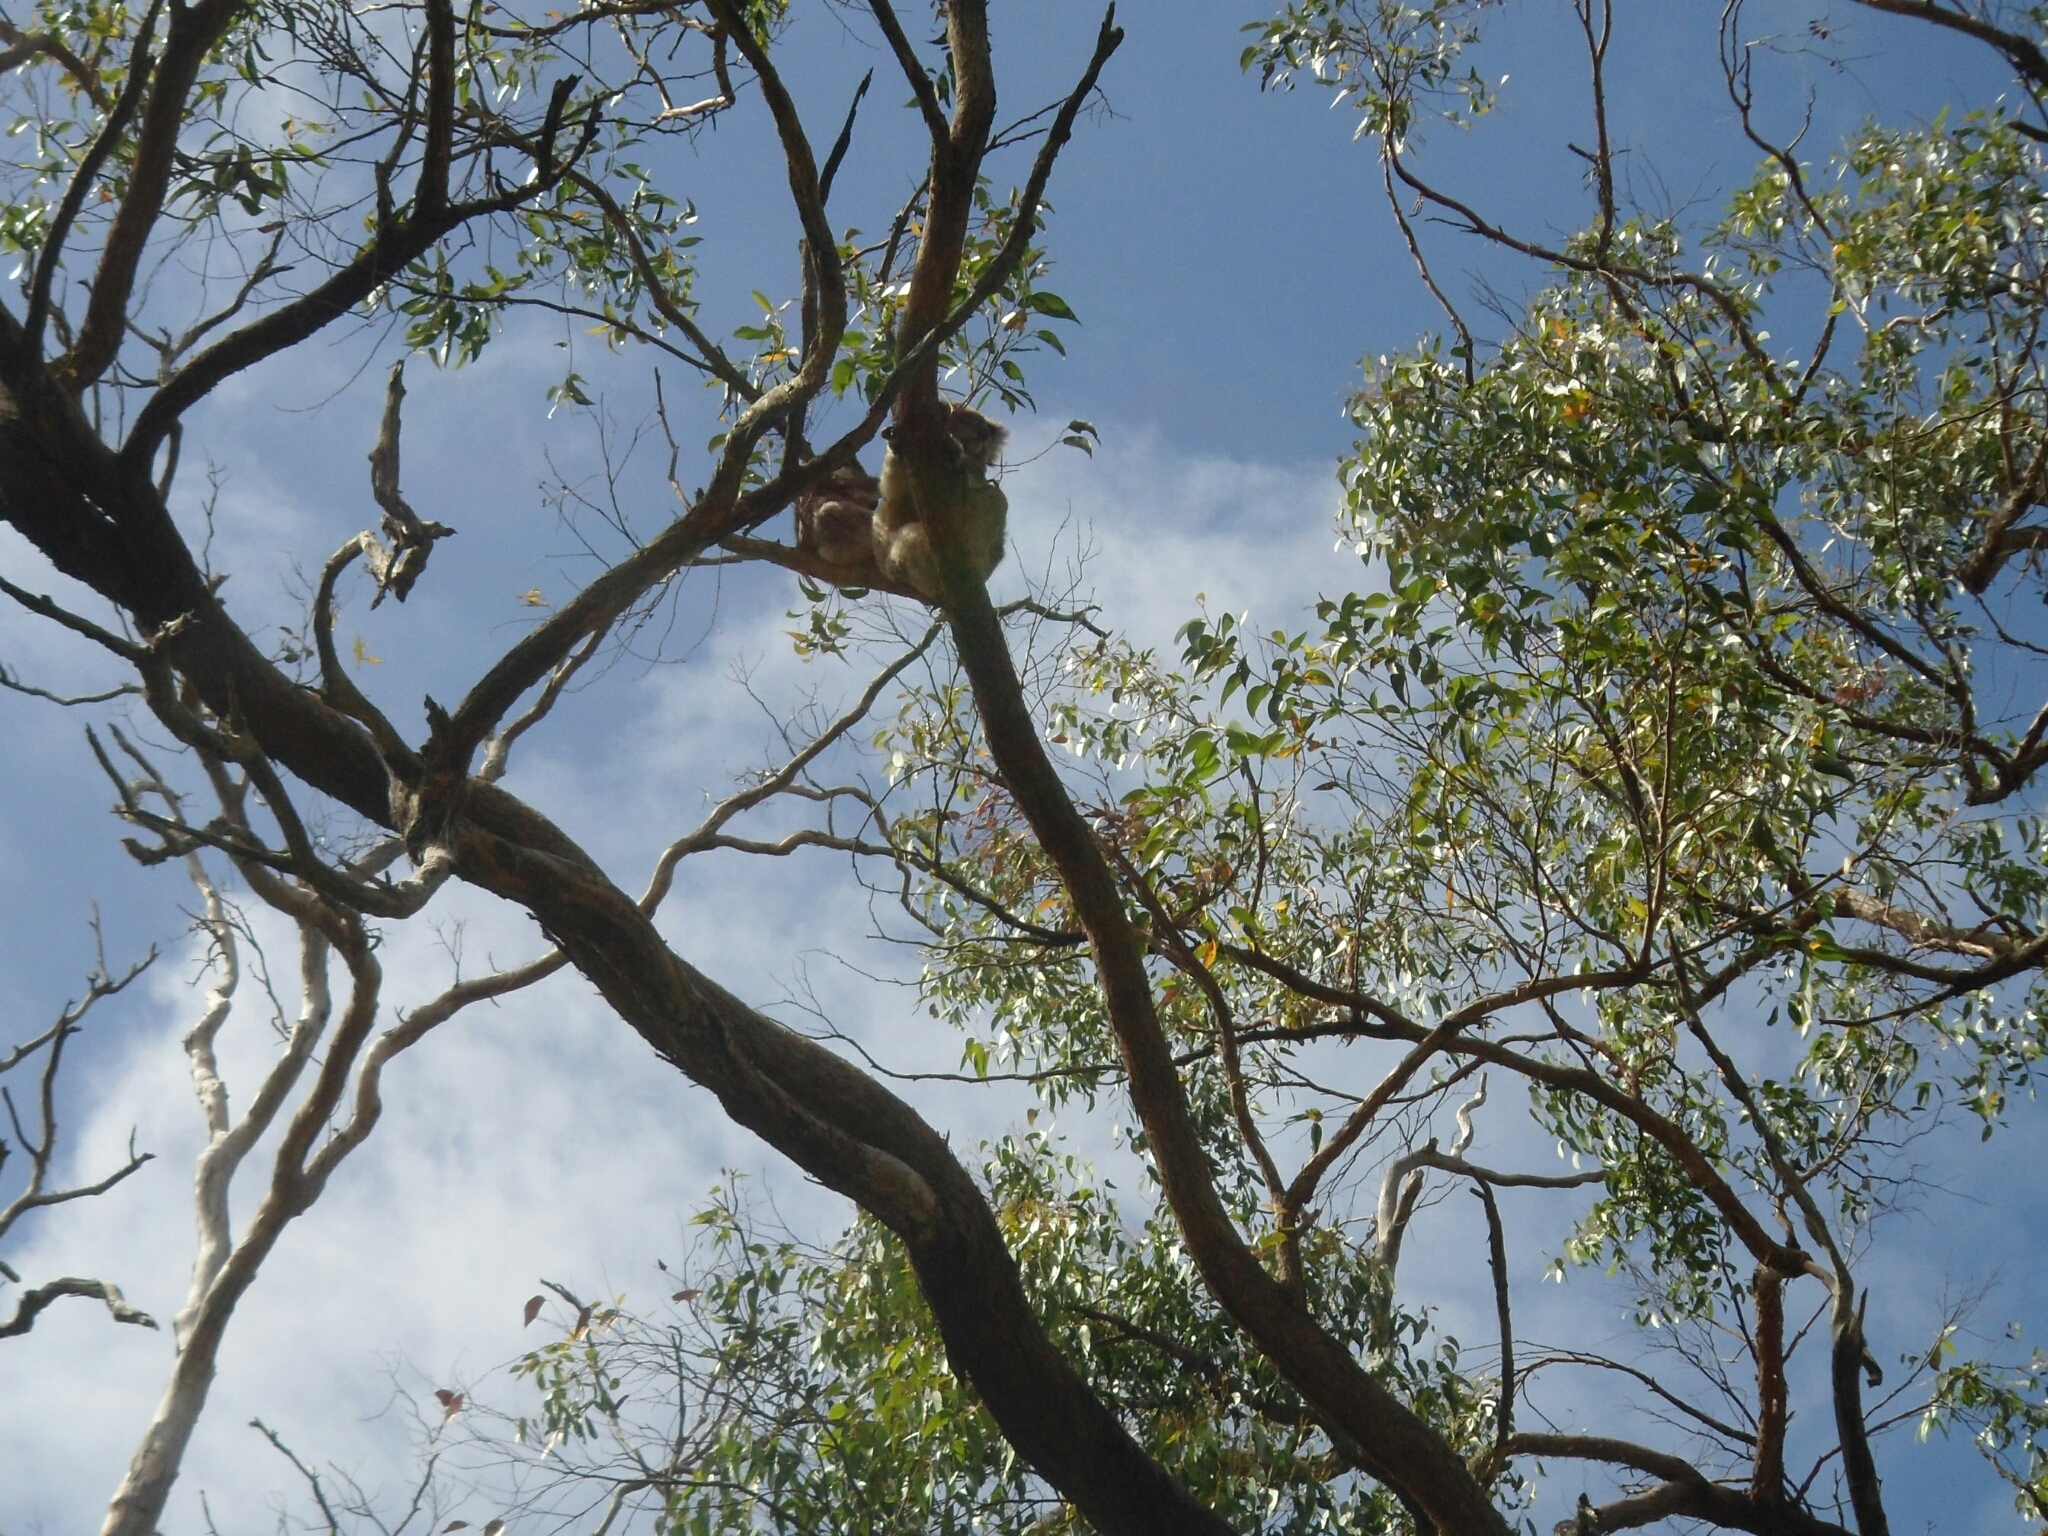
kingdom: Animalia
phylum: Chordata
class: Mammalia
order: Diprotodontia
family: Phascolarctidae
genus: Phascolarctos
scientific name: Phascolarctos cinereus
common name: Koala
